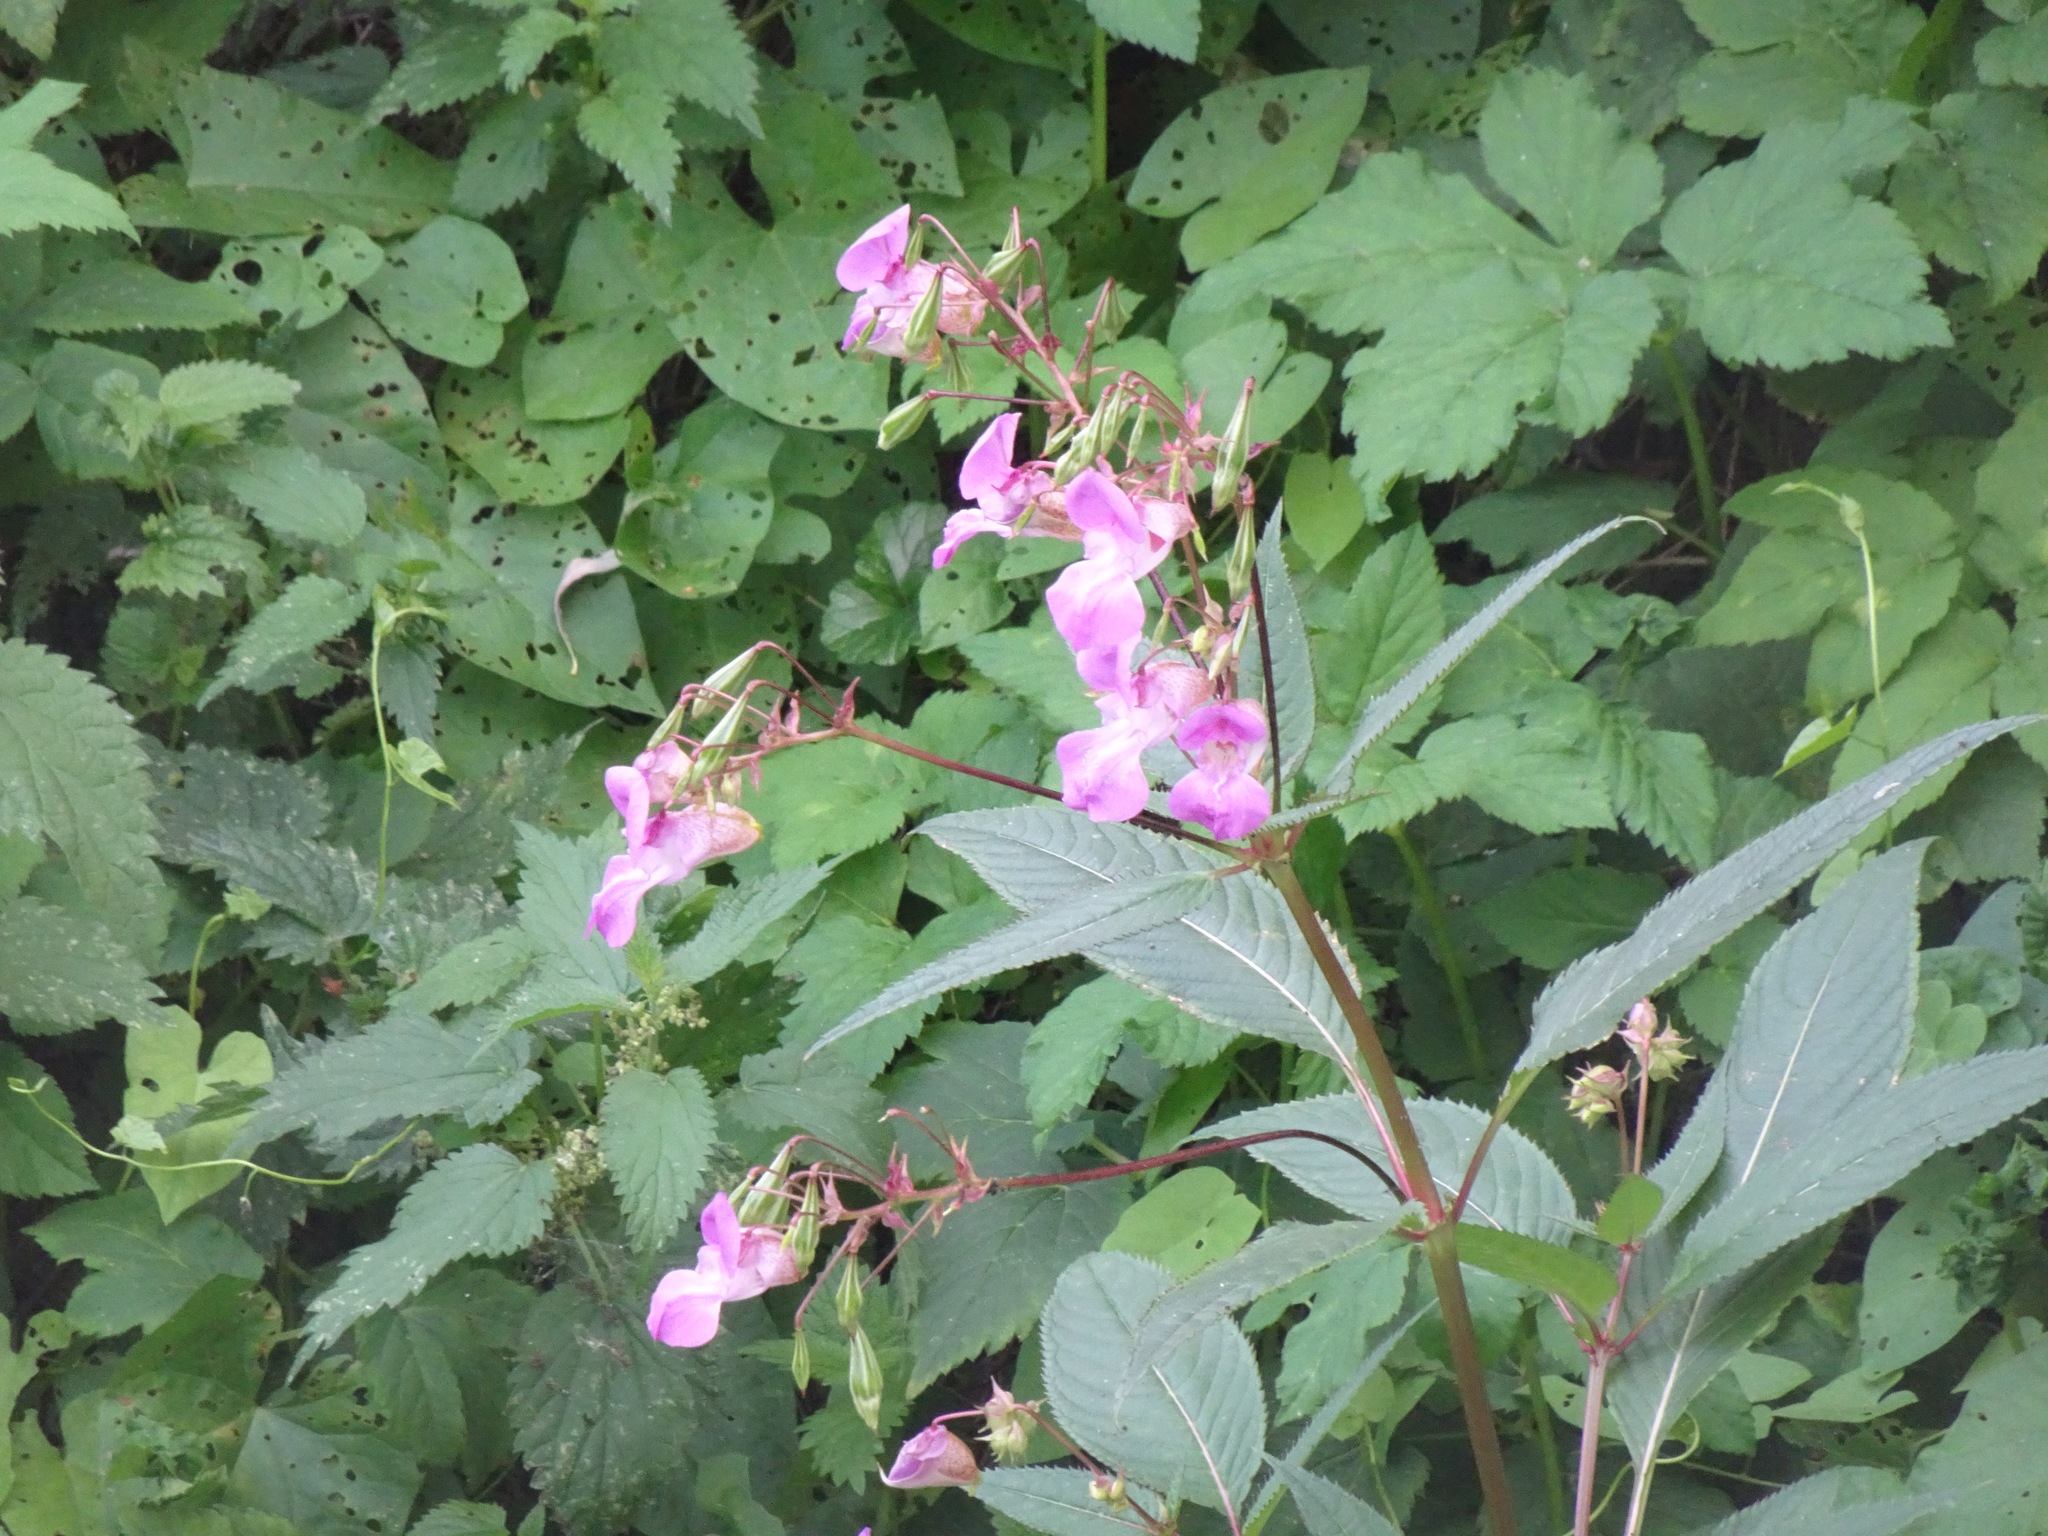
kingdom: Plantae
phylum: Tracheophyta
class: Magnoliopsida
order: Ericales
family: Balsaminaceae
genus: Impatiens
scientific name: Impatiens glandulifera
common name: Himalayan balsam
